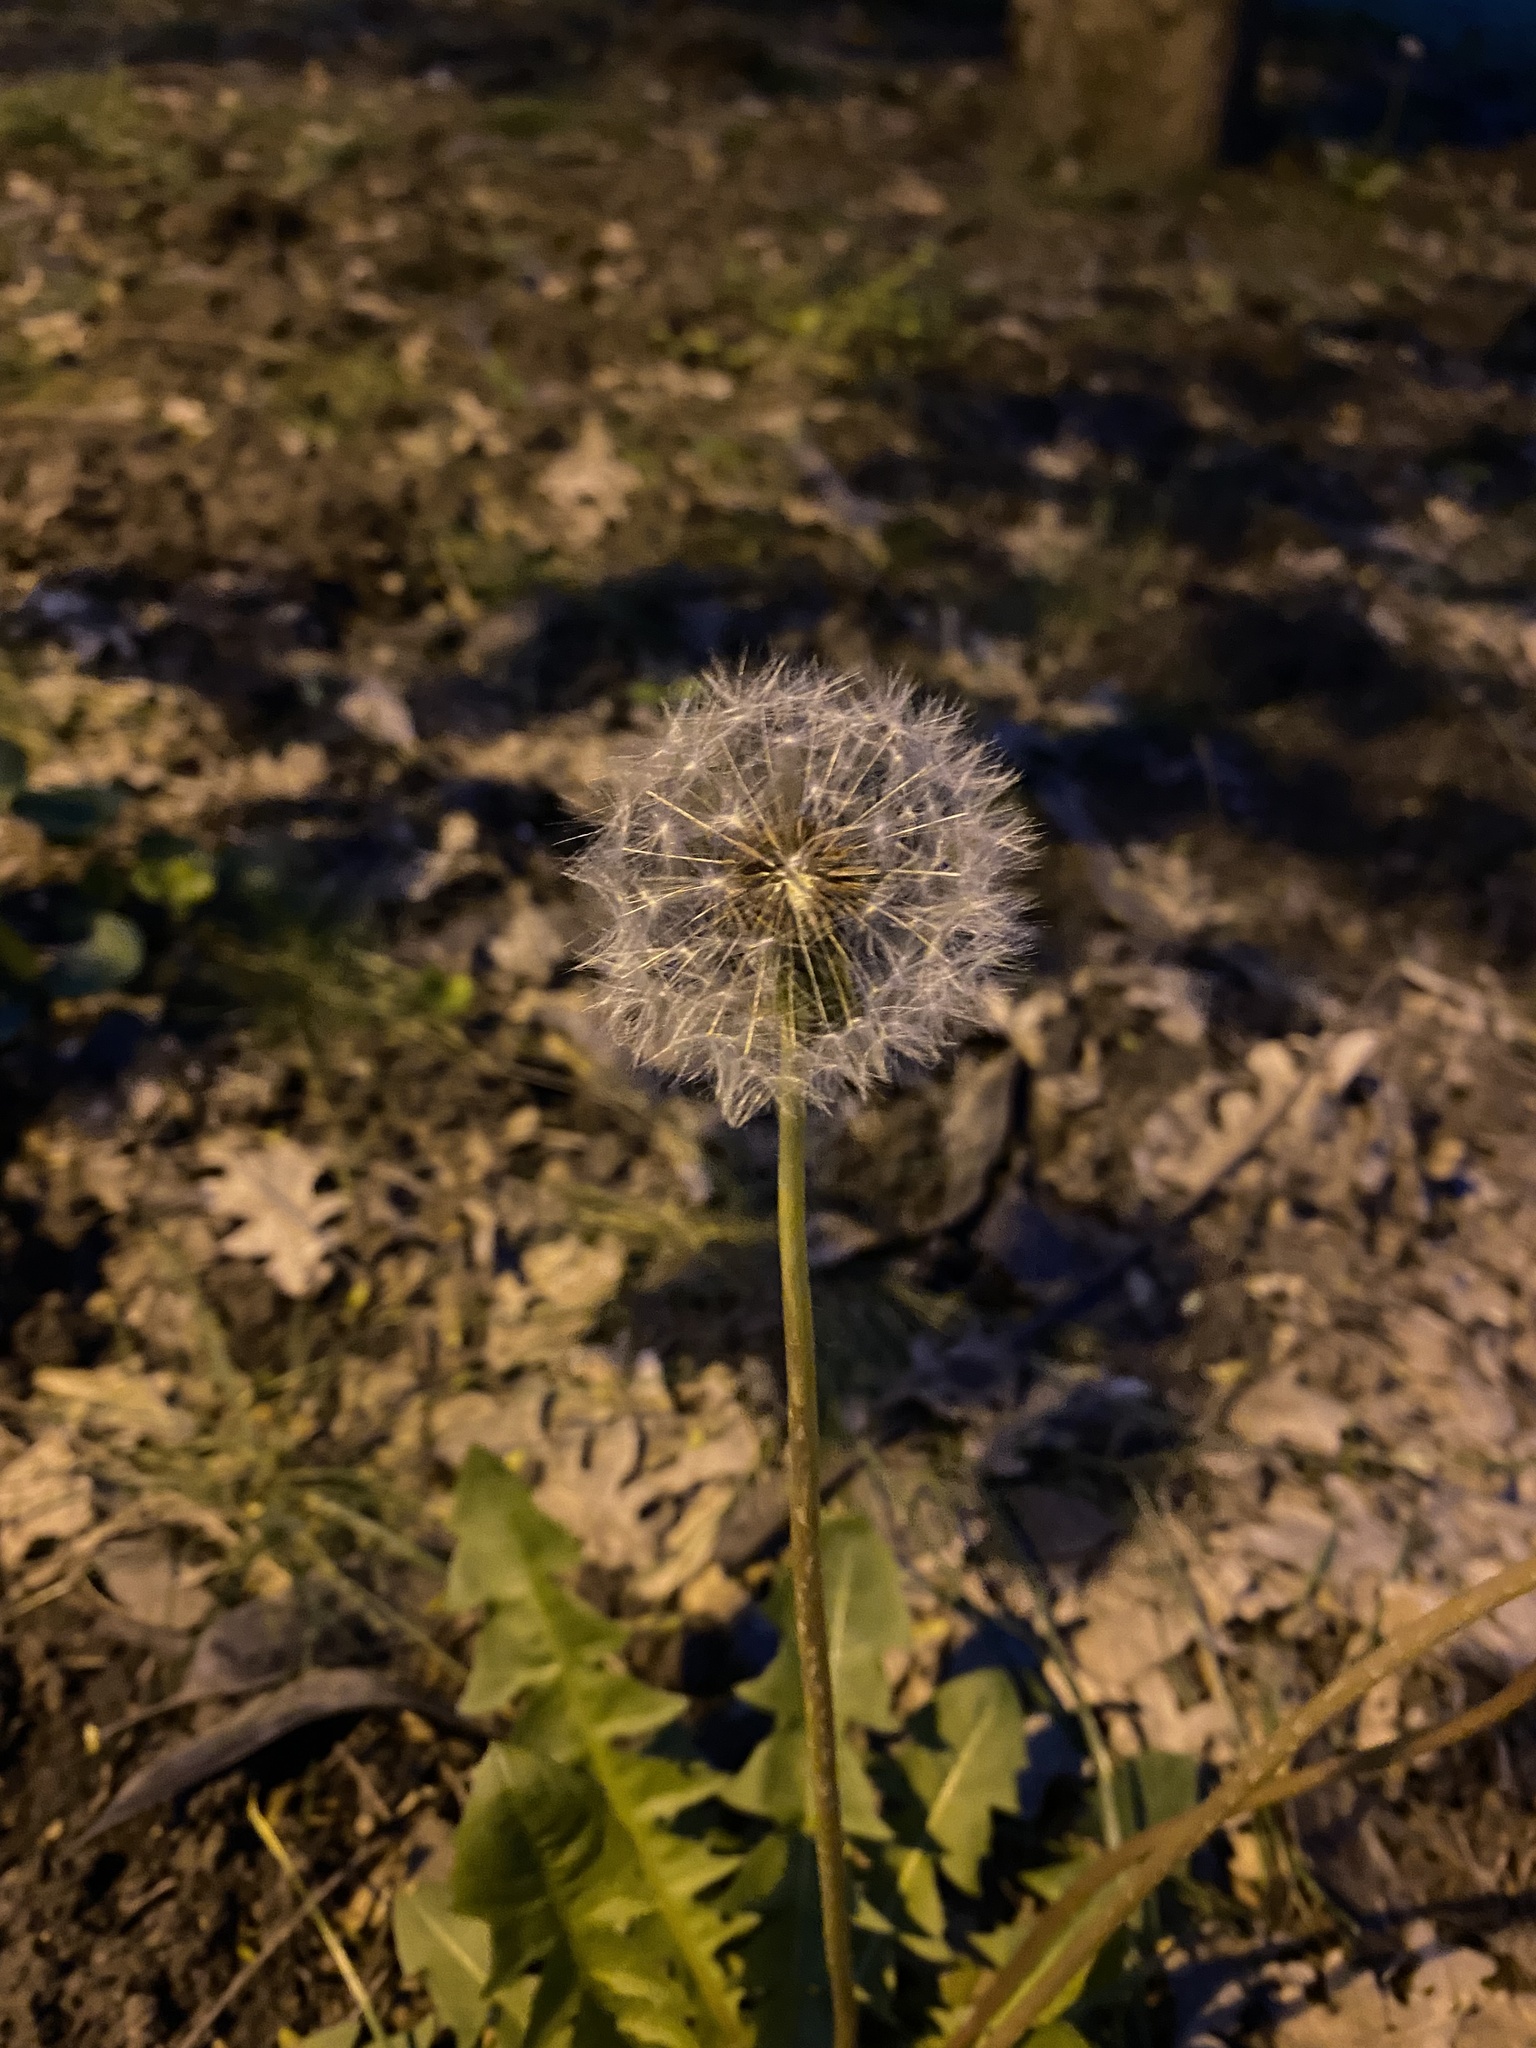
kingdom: Plantae
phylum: Tracheophyta
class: Magnoliopsida
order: Asterales
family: Asteraceae
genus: Taraxacum
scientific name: Taraxacum officinale
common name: Common dandelion
